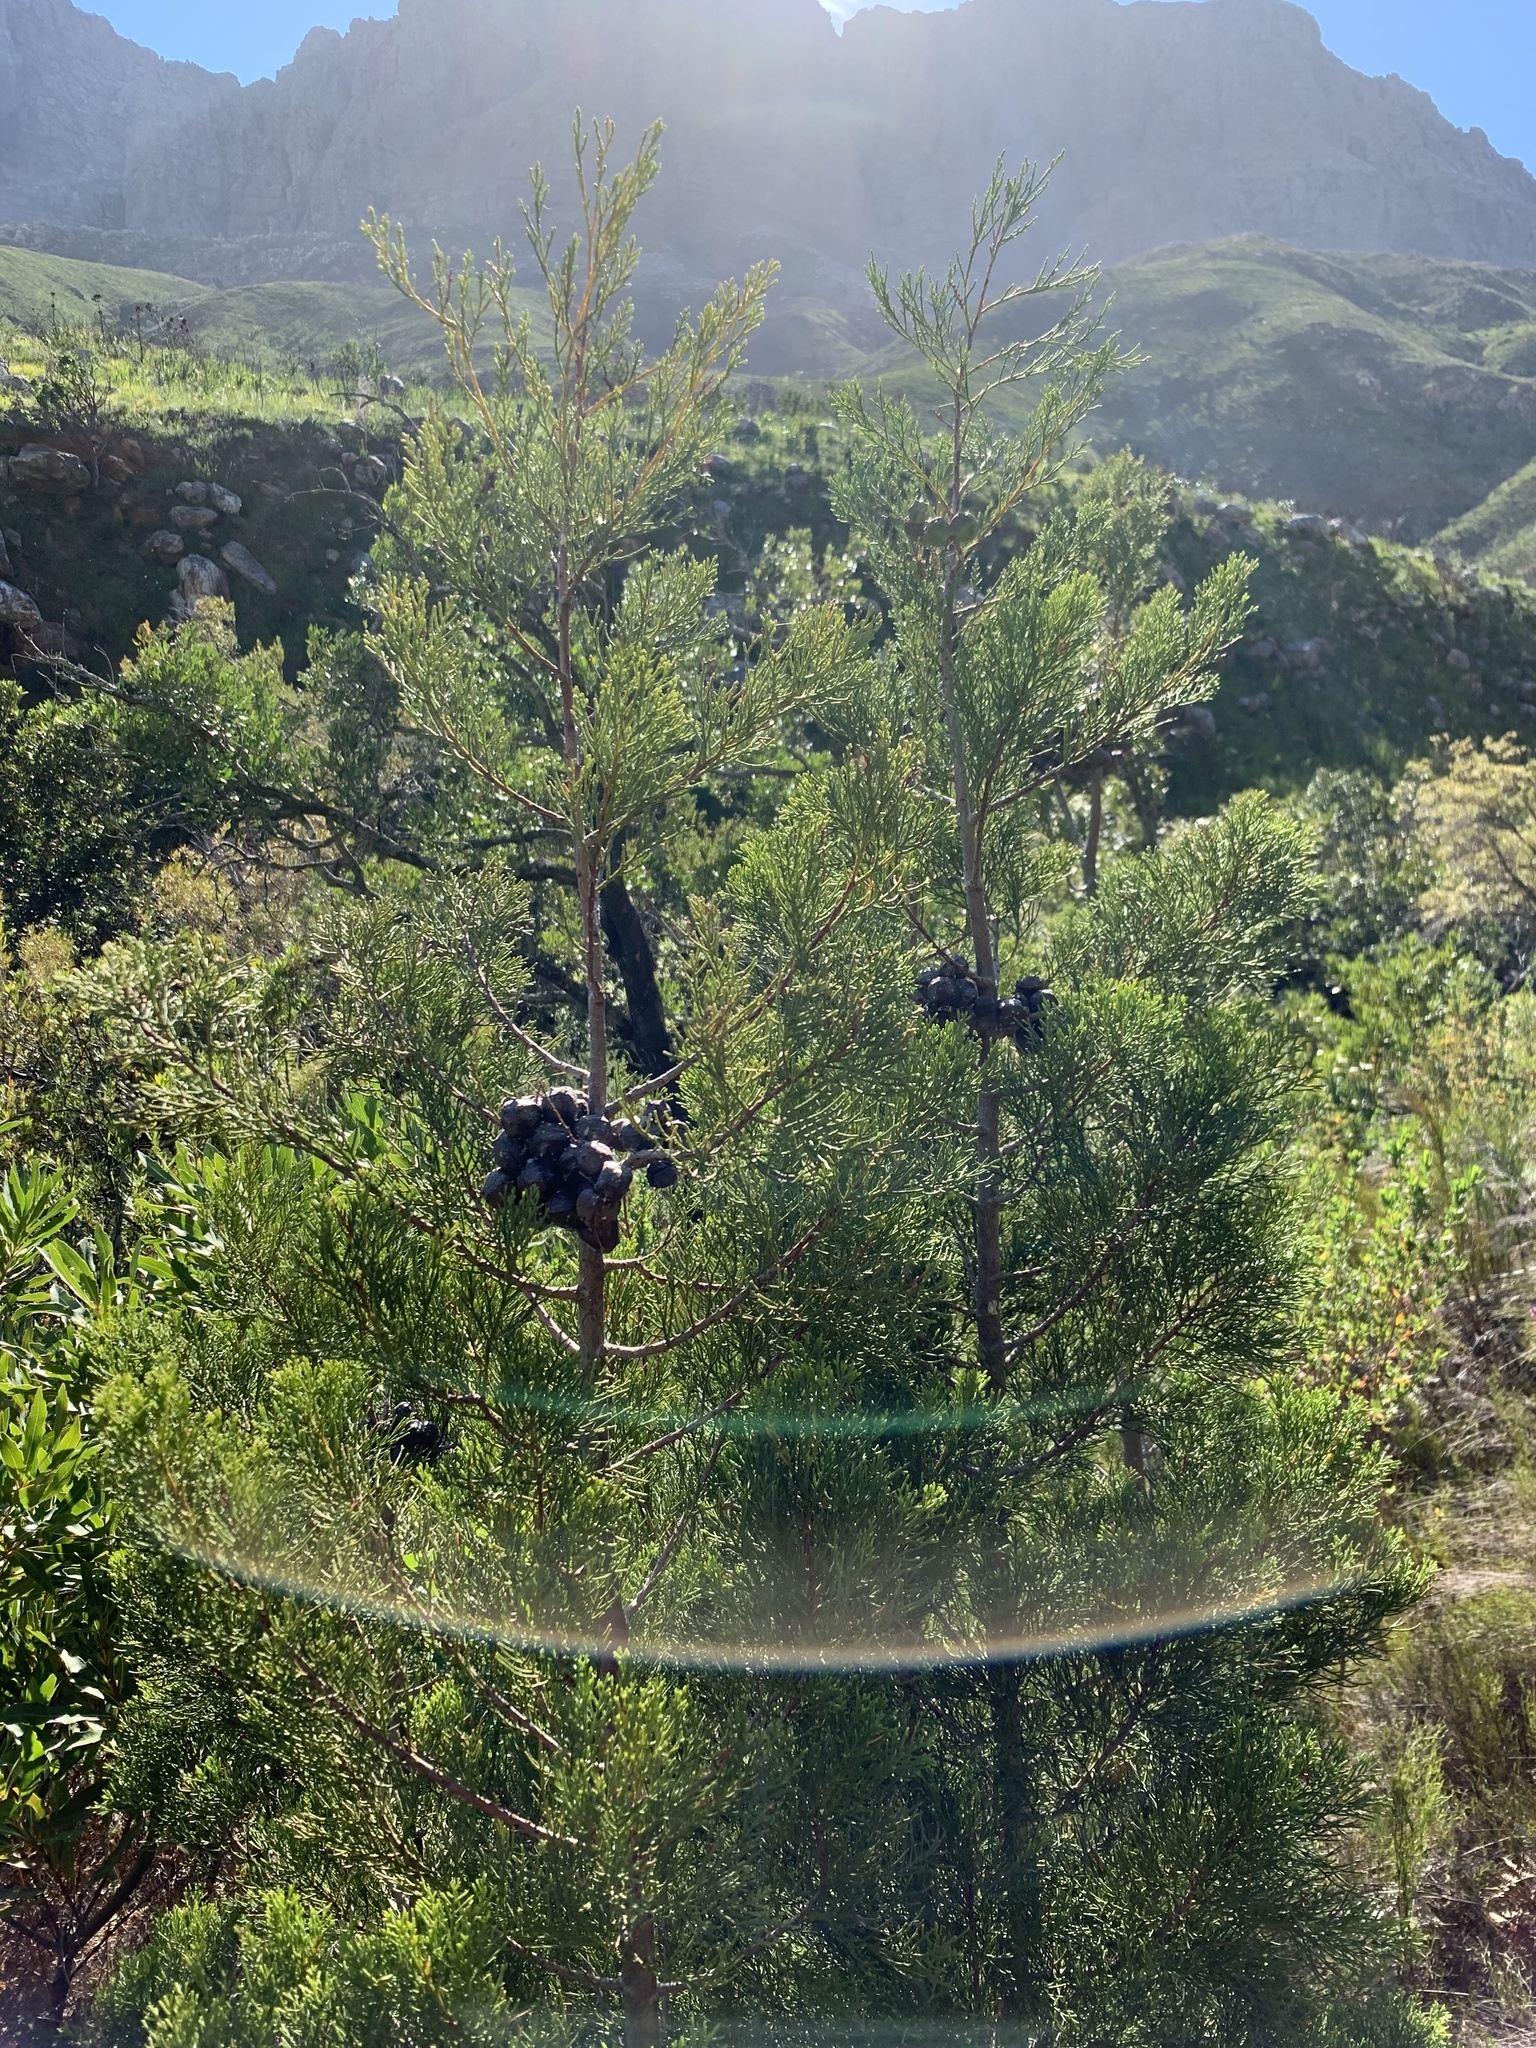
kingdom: Plantae
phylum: Tracheophyta
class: Pinopsida
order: Pinales
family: Cupressaceae
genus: Widdringtonia
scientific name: Widdringtonia nodiflora
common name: Cape cypress
